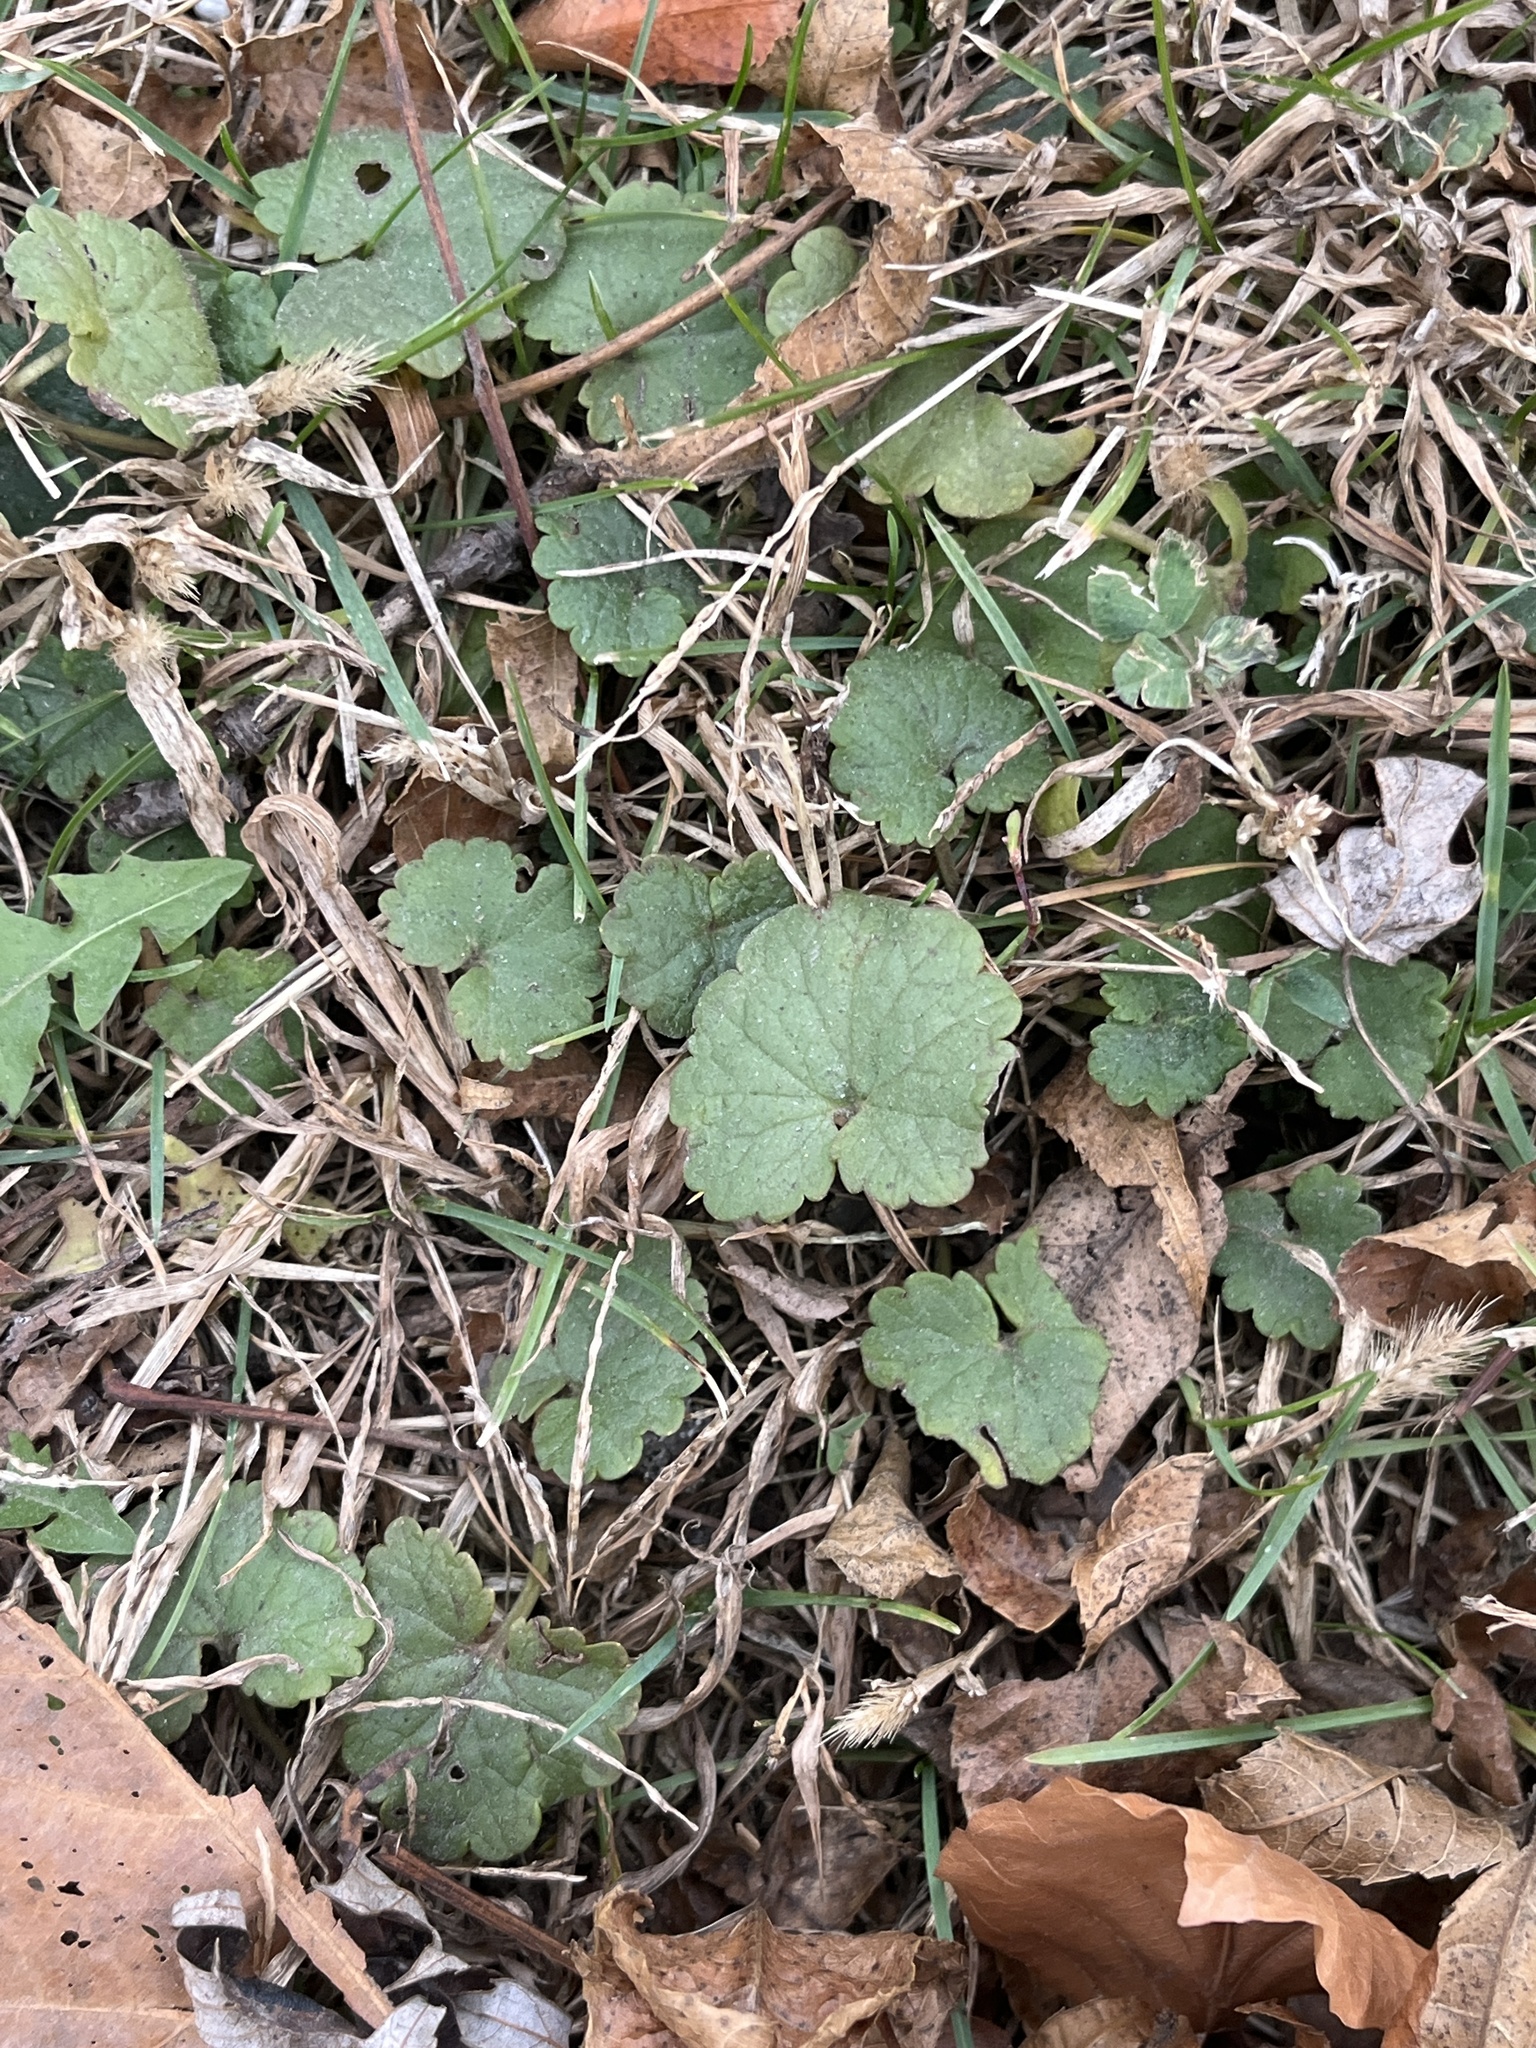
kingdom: Plantae
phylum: Tracheophyta
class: Magnoliopsida
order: Lamiales
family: Lamiaceae
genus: Glechoma
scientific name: Glechoma hederacea
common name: Ground ivy
